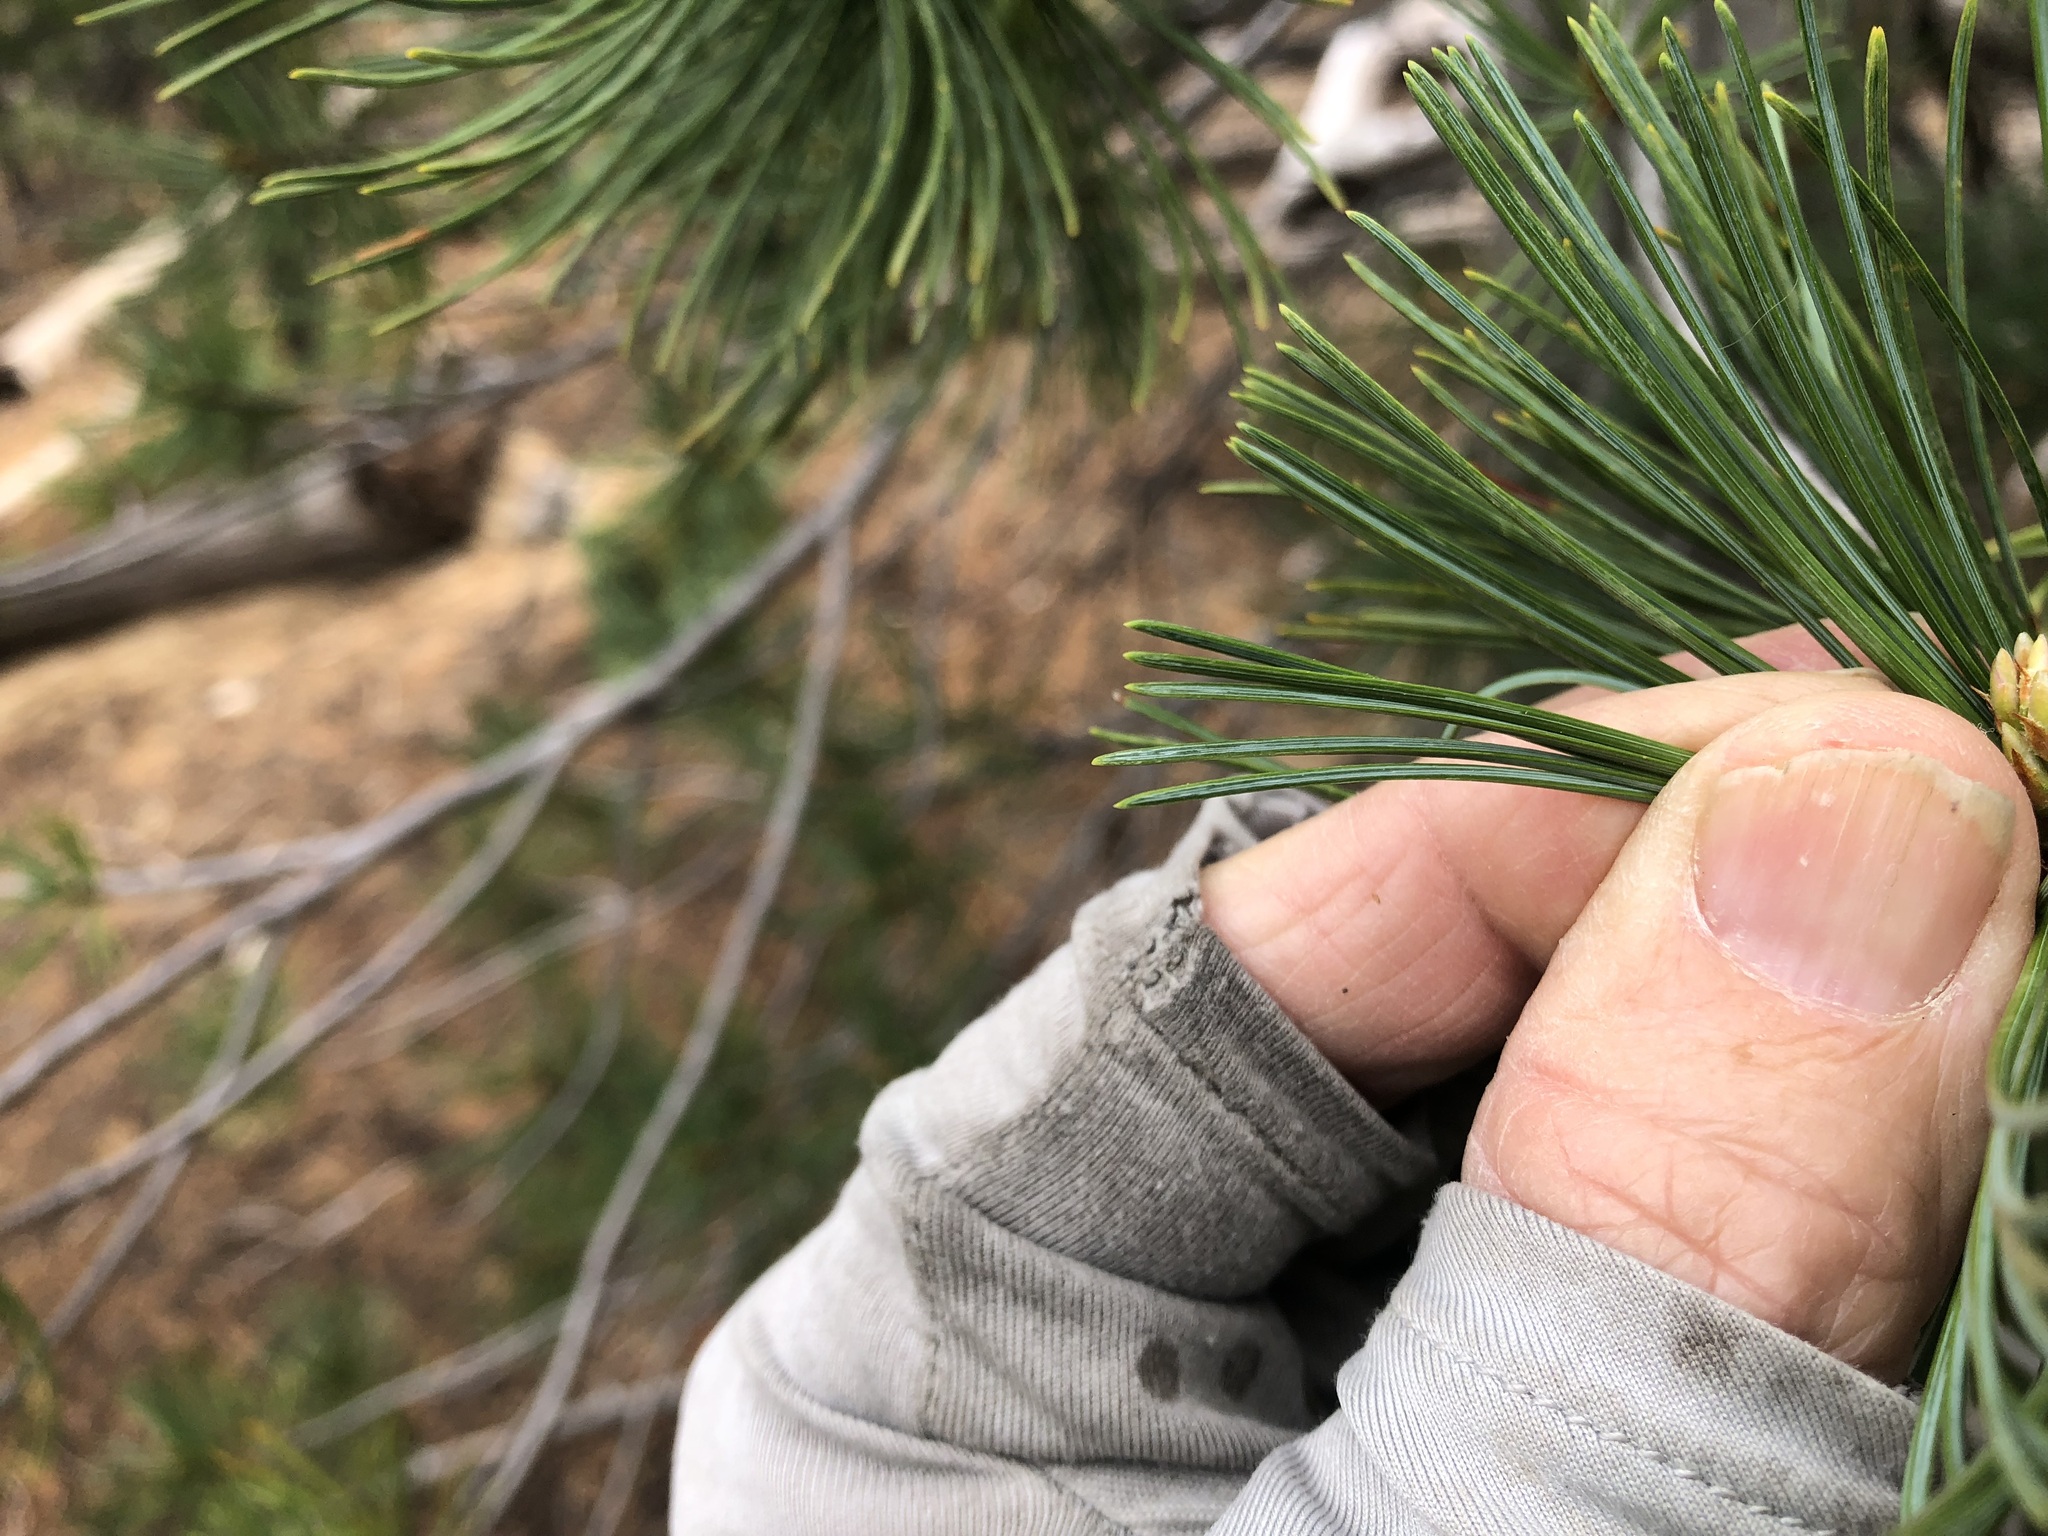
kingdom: Plantae
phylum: Tracheophyta
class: Pinopsida
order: Pinales
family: Pinaceae
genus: Pinus
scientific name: Pinus monticola
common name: Western white pine
